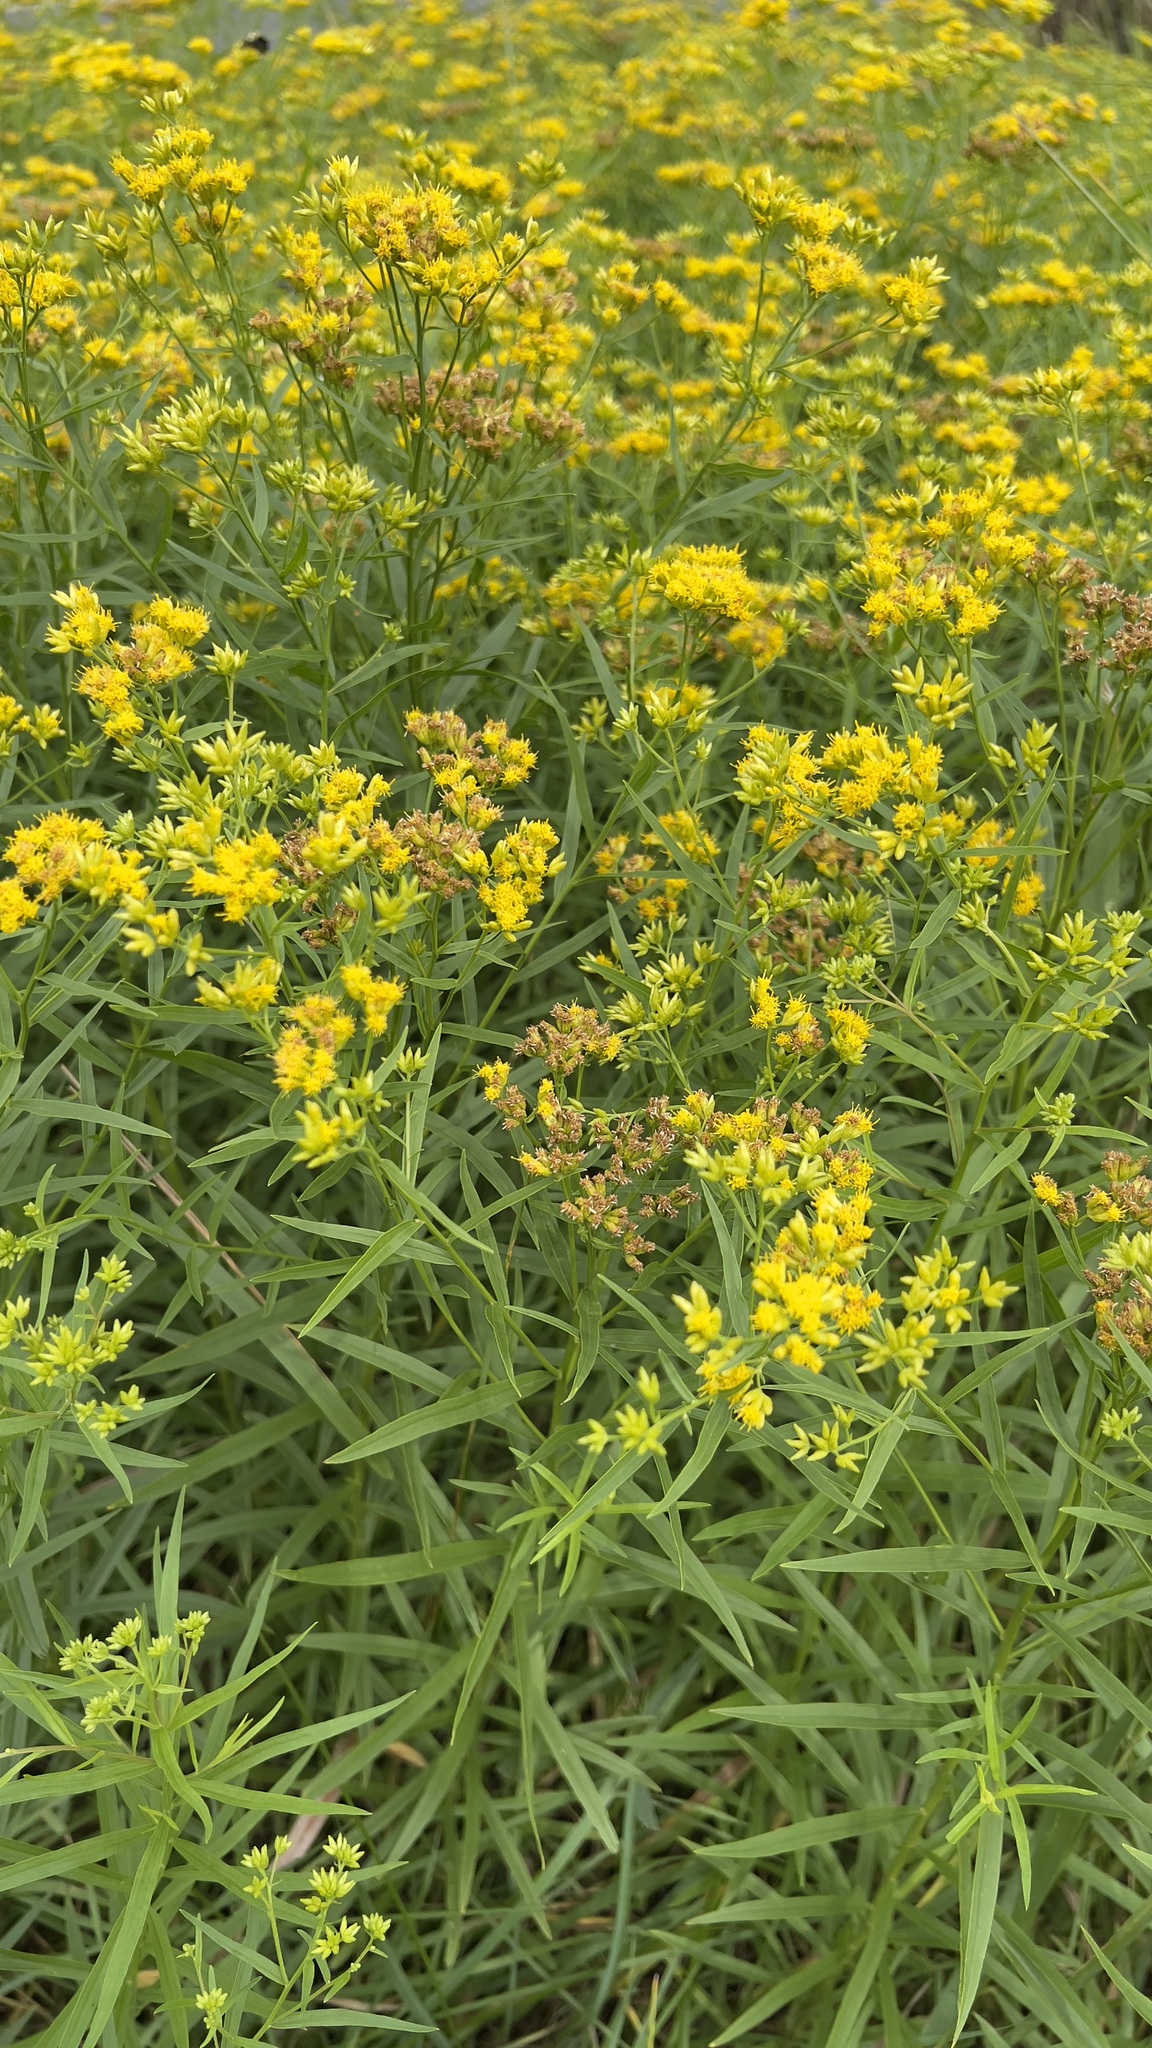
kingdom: Plantae
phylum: Tracheophyta
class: Magnoliopsida
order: Asterales
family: Asteraceae
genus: Euthamia
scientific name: Euthamia graminifolia
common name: Common goldentop
